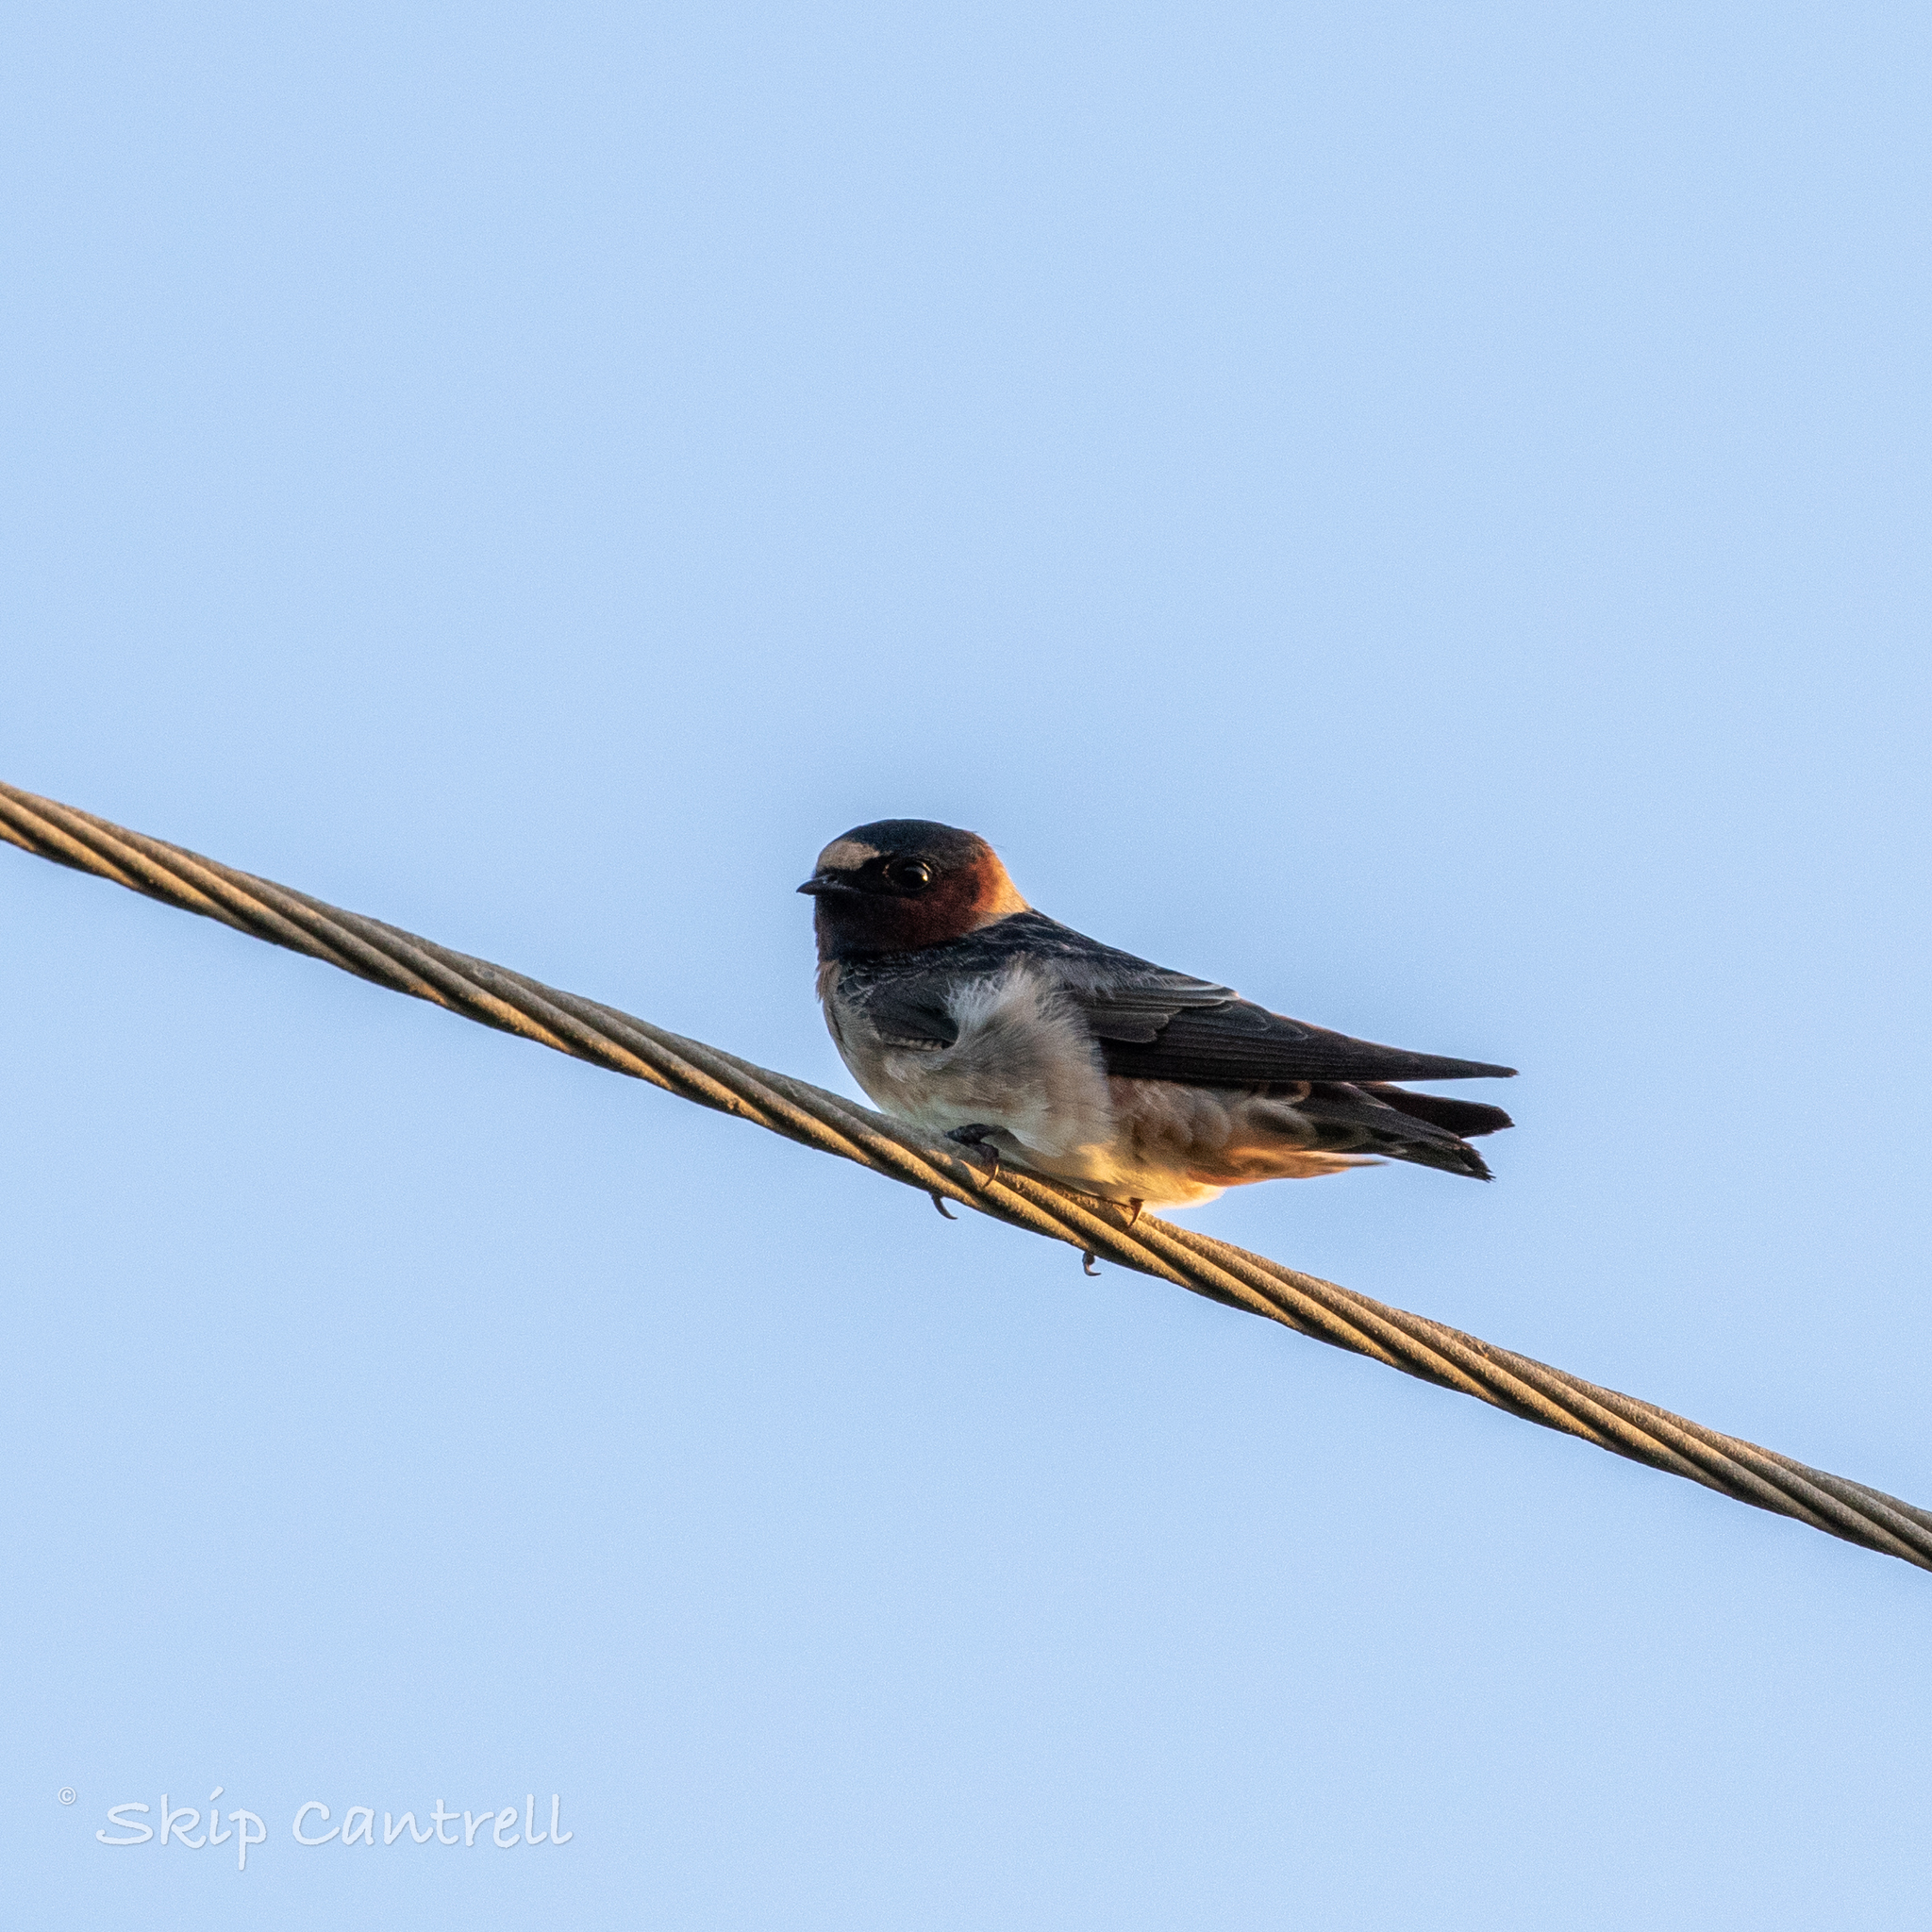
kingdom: Animalia
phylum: Chordata
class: Aves
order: Passeriformes
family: Hirundinidae
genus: Petrochelidon
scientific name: Petrochelidon pyrrhonota
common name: American cliff swallow
